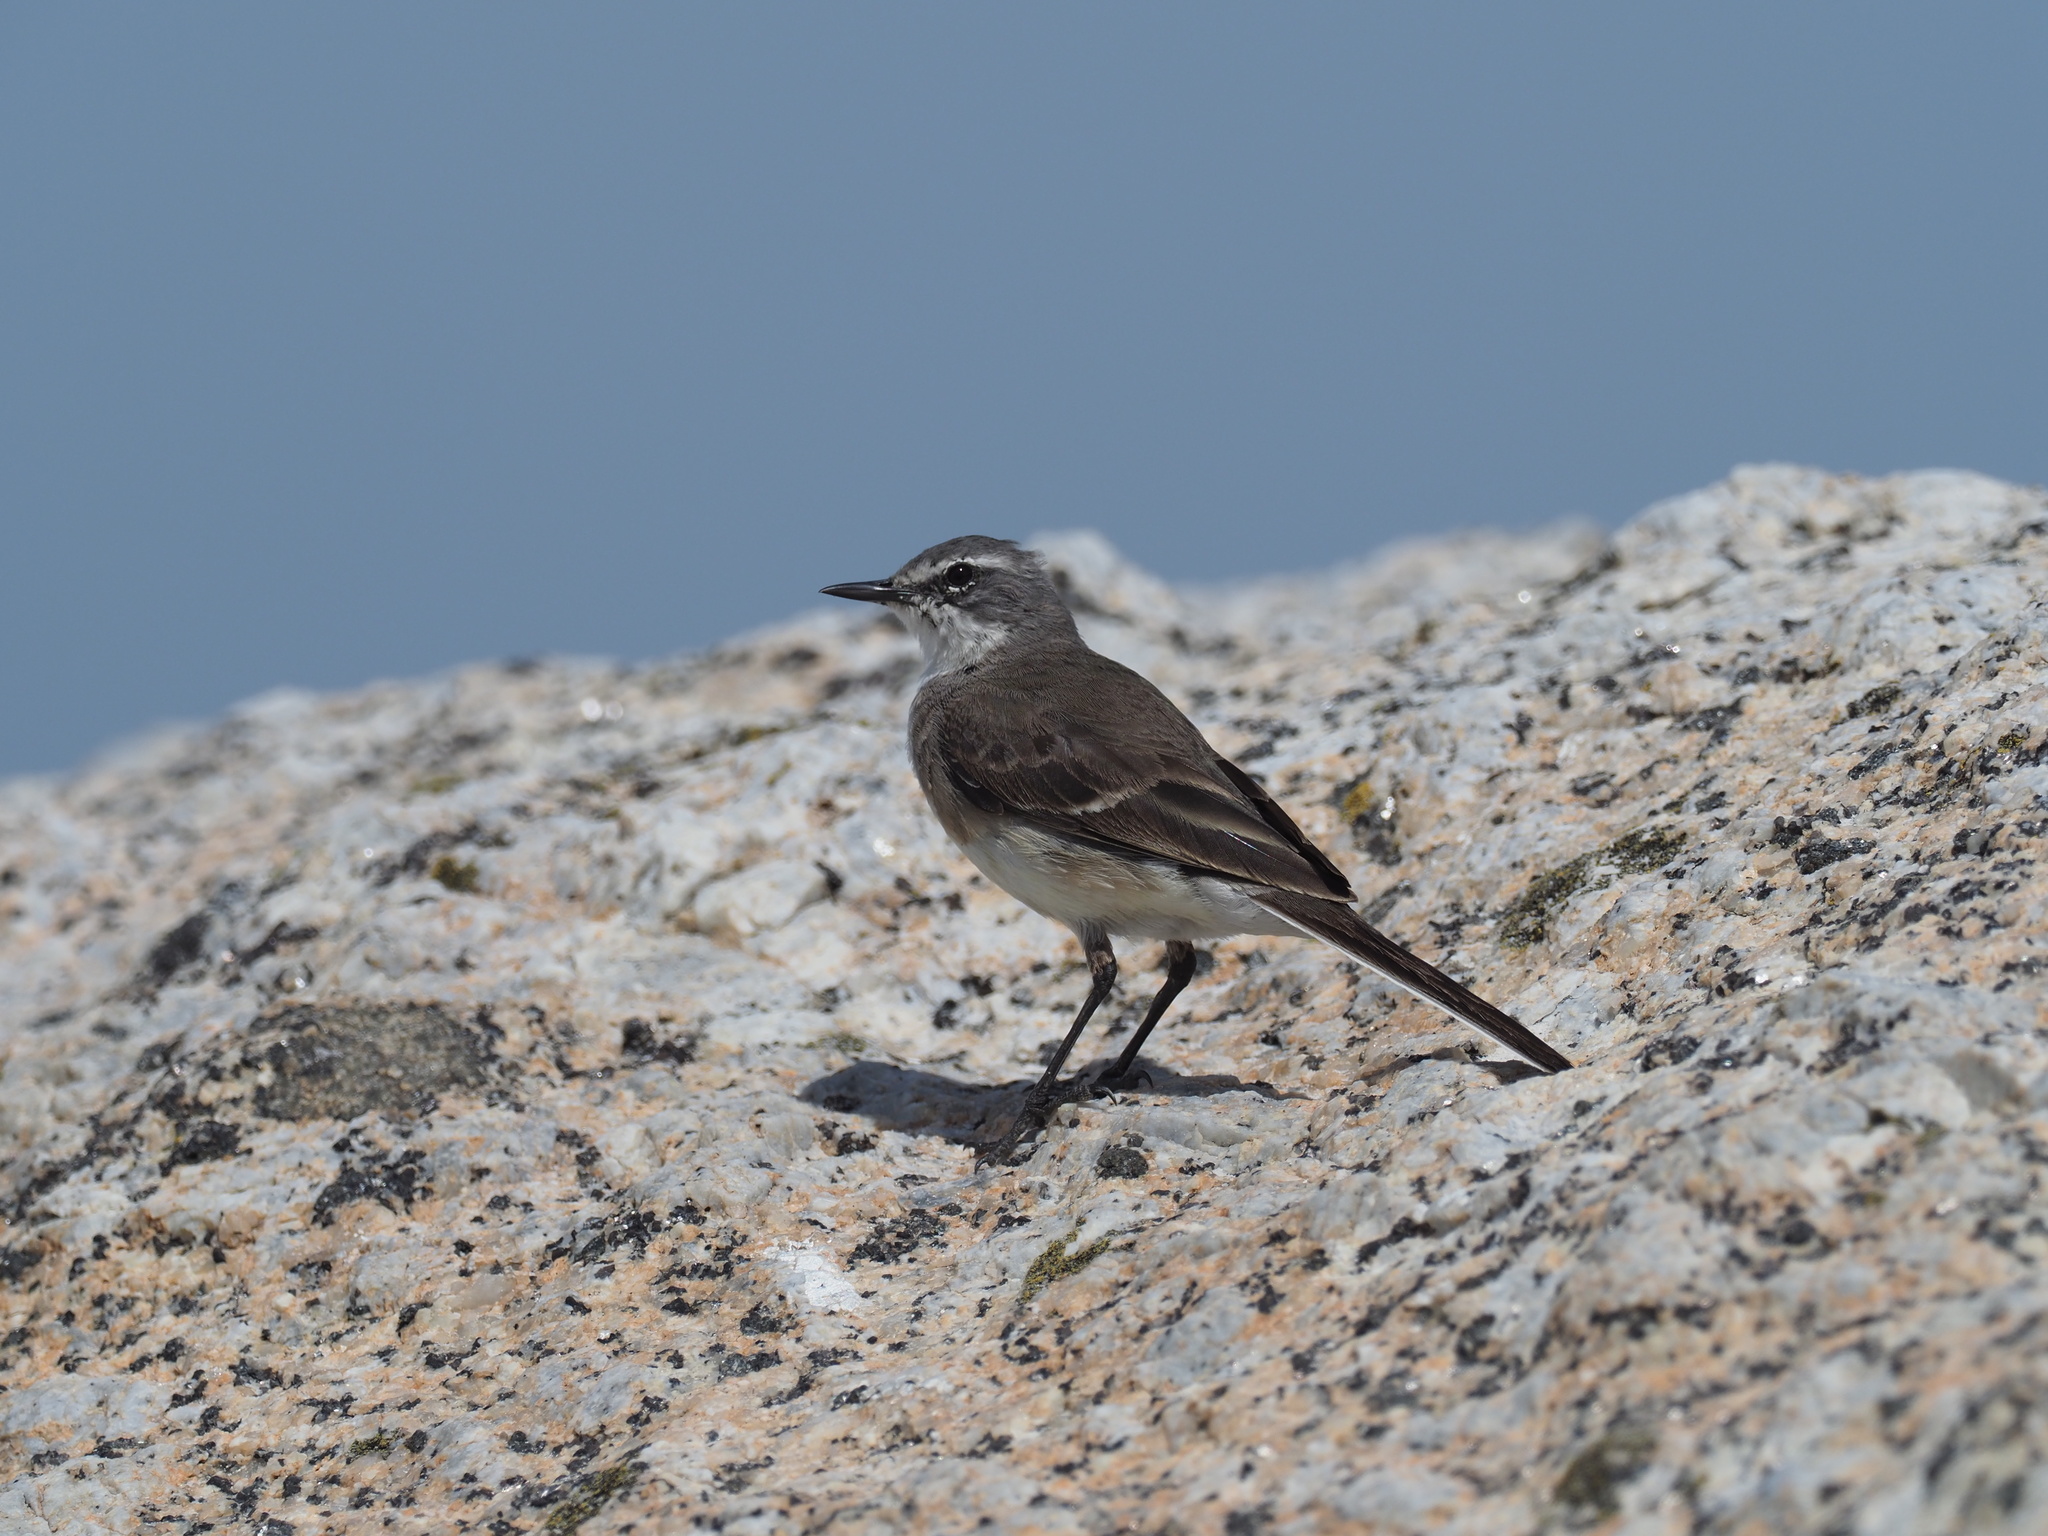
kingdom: Animalia
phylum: Chordata
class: Aves
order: Passeriformes
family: Motacillidae
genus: Motacilla
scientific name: Motacilla capensis
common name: Cape wagtail
